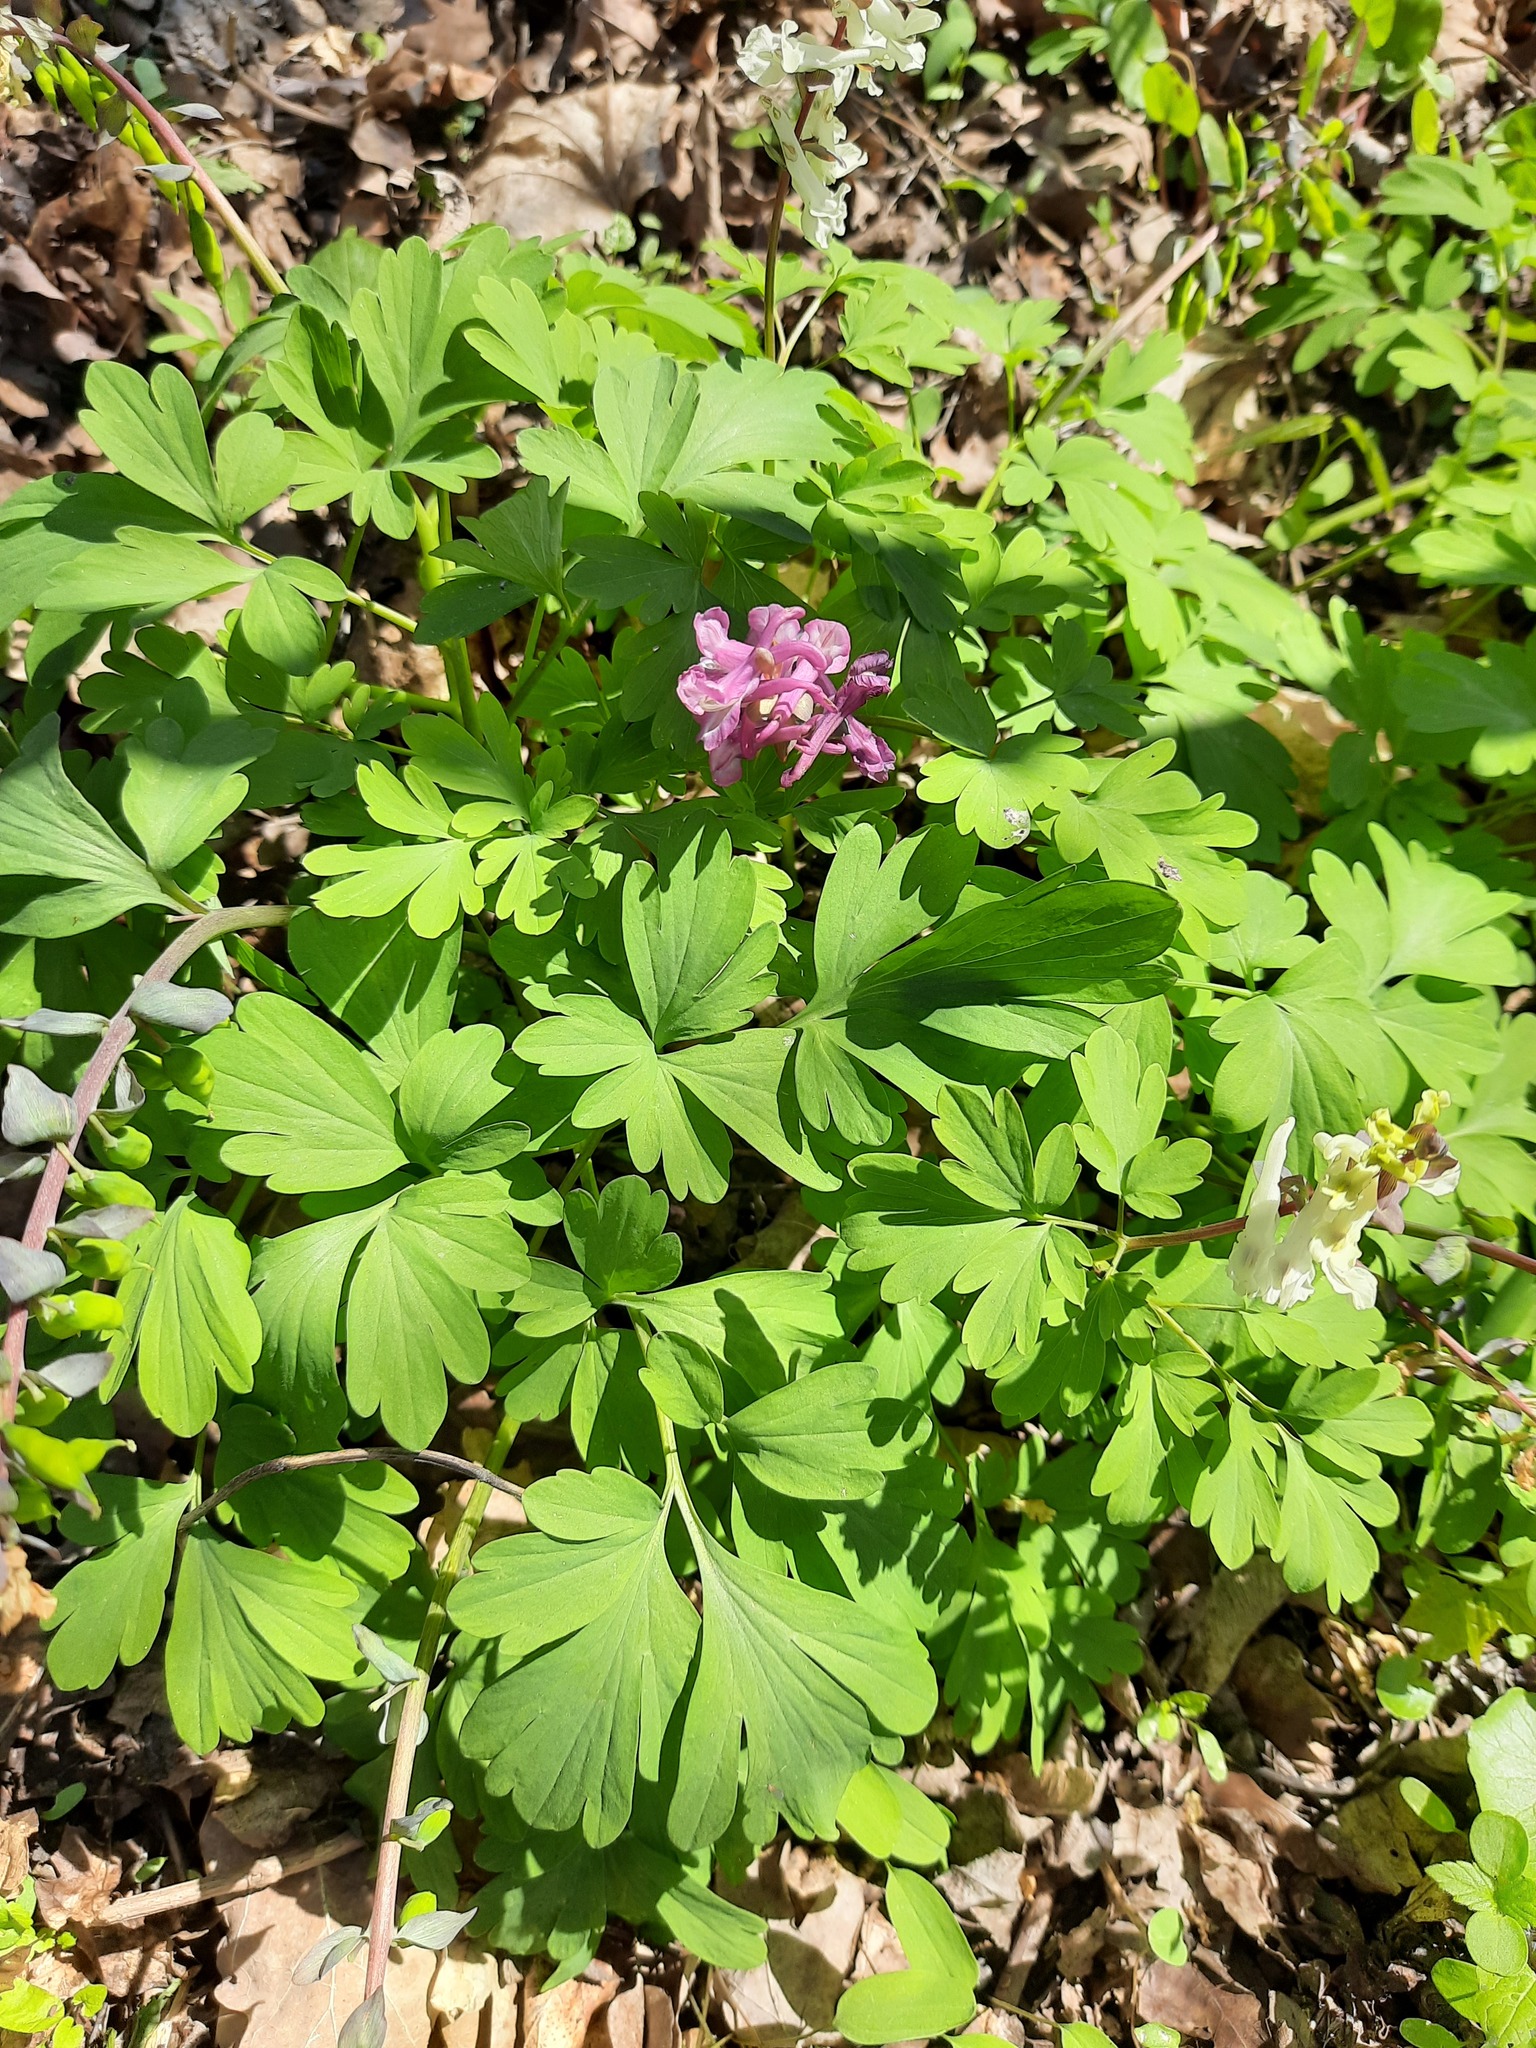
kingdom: Plantae
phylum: Tracheophyta
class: Magnoliopsida
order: Ranunculales
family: Papaveraceae
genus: Corydalis
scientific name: Corydalis cava
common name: Hollowroot
